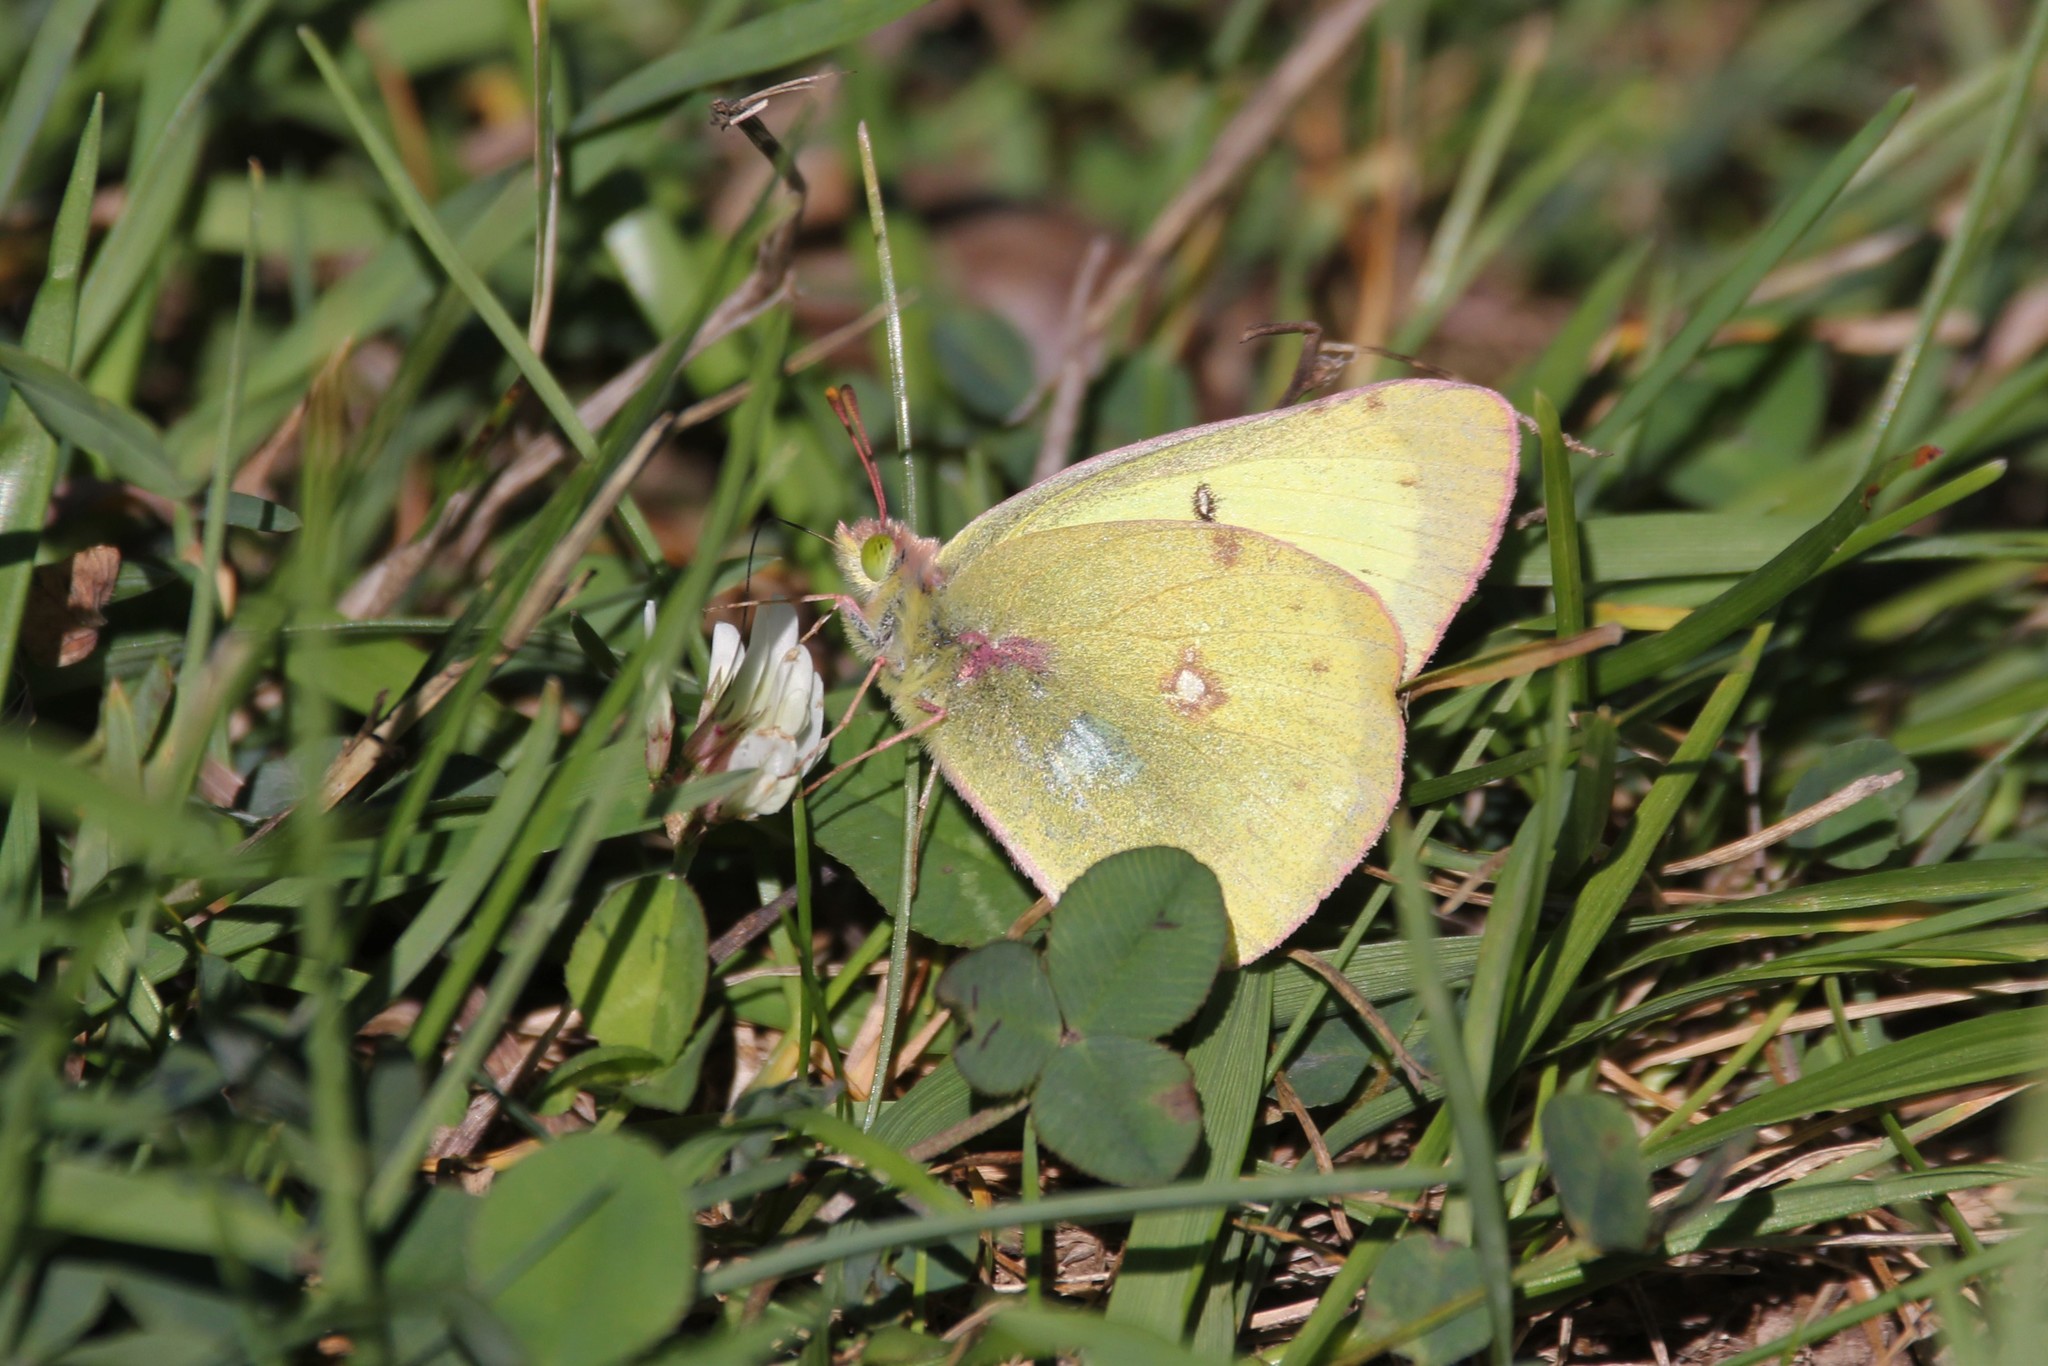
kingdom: Animalia
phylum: Arthropoda
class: Insecta
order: Lepidoptera
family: Pieridae
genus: Colias
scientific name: Colias philodice
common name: Clouded sulphur
